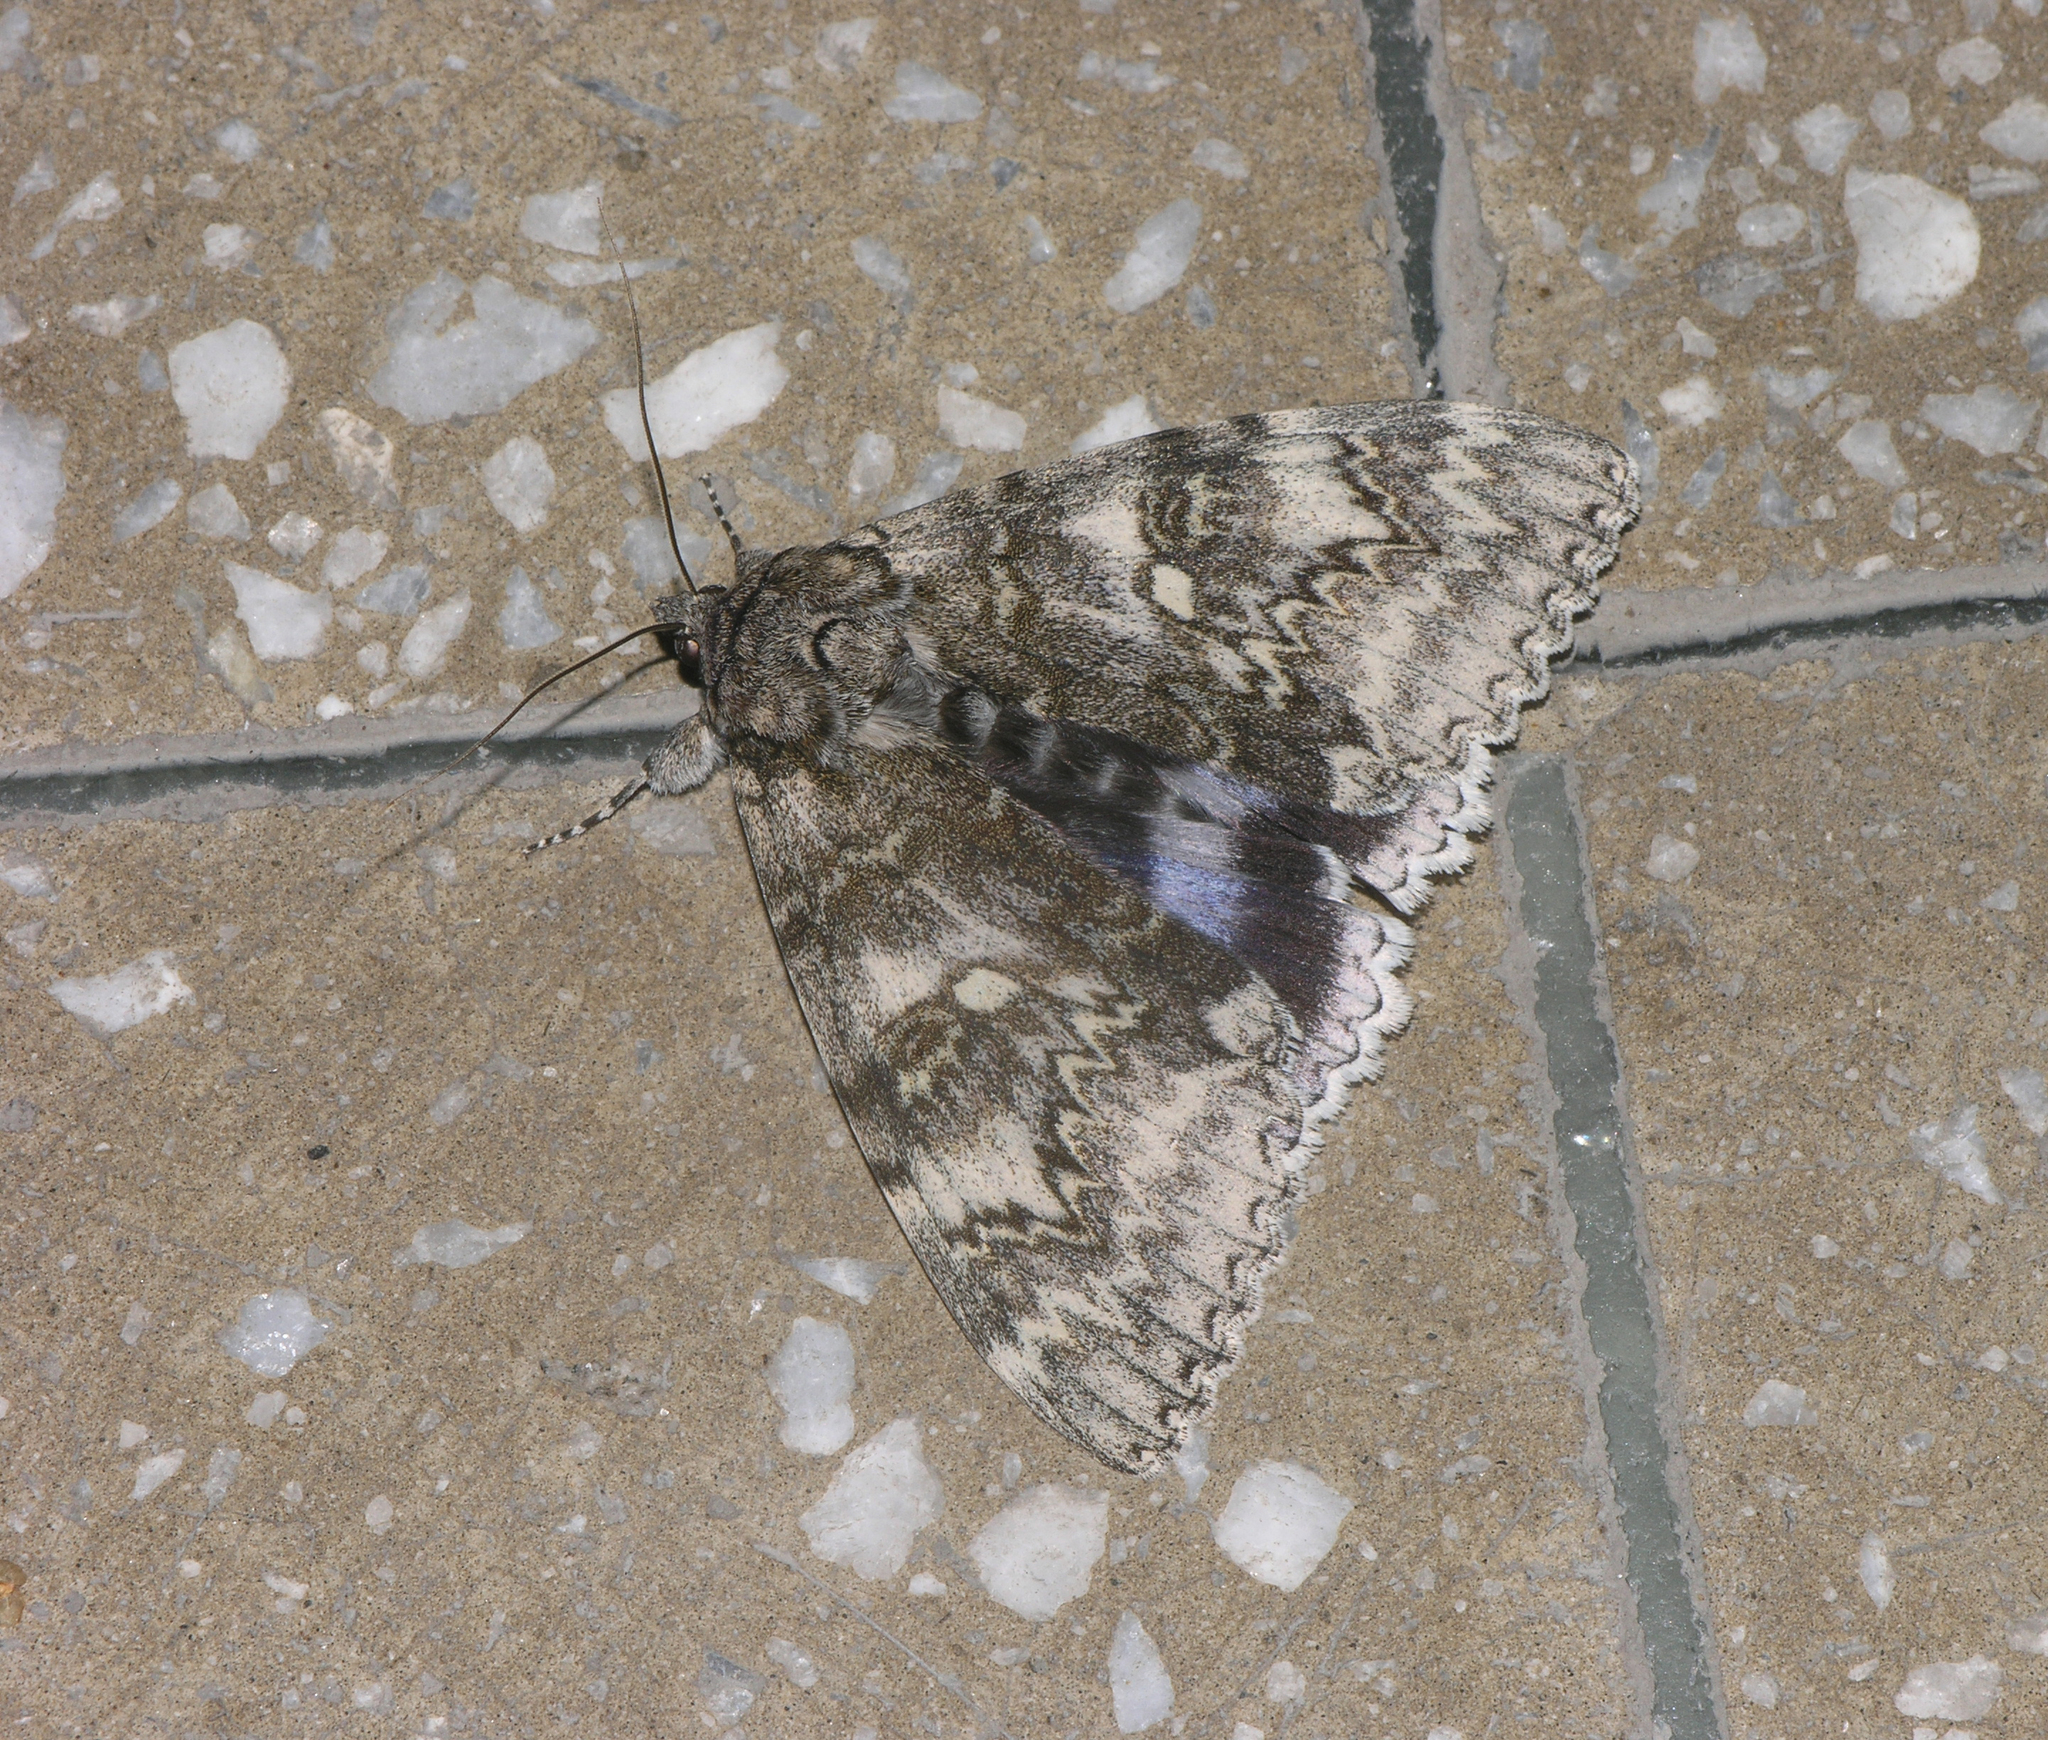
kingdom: Animalia
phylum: Arthropoda
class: Insecta
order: Lepidoptera
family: Erebidae
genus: Catocala
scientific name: Catocala fraxini
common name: Clifden nonpareil
